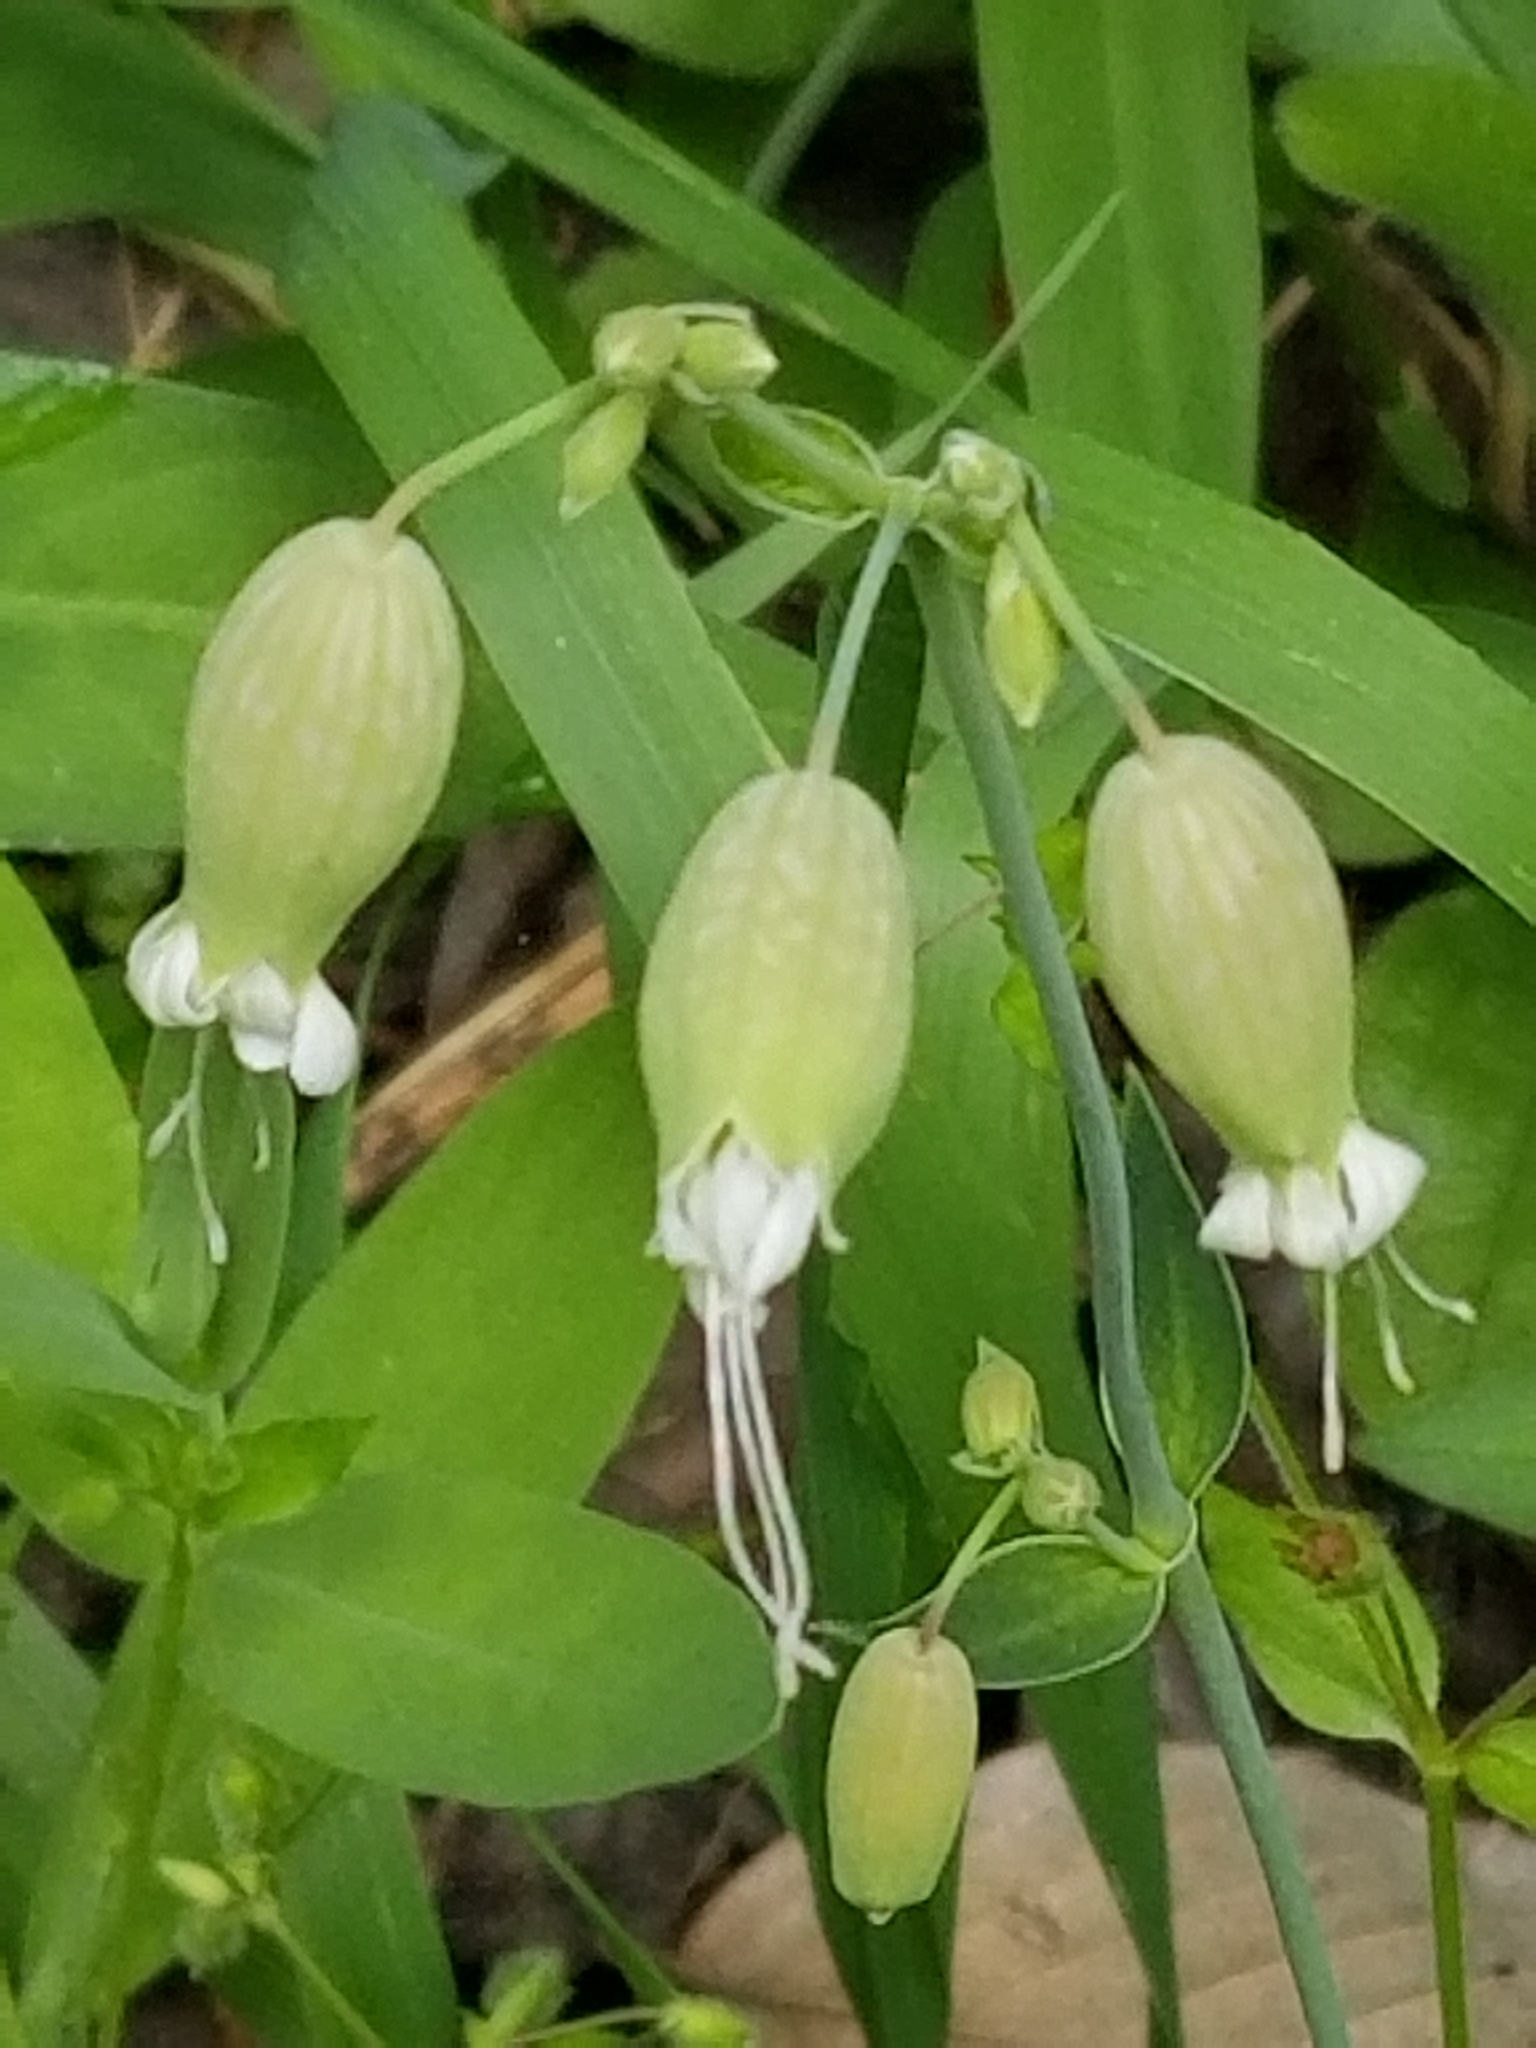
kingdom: Plantae
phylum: Tracheophyta
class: Magnoliopsida
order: Caryophyllales
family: Caryophyllaceae
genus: Silene
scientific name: Silene vulgaris
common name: Bladder campion
